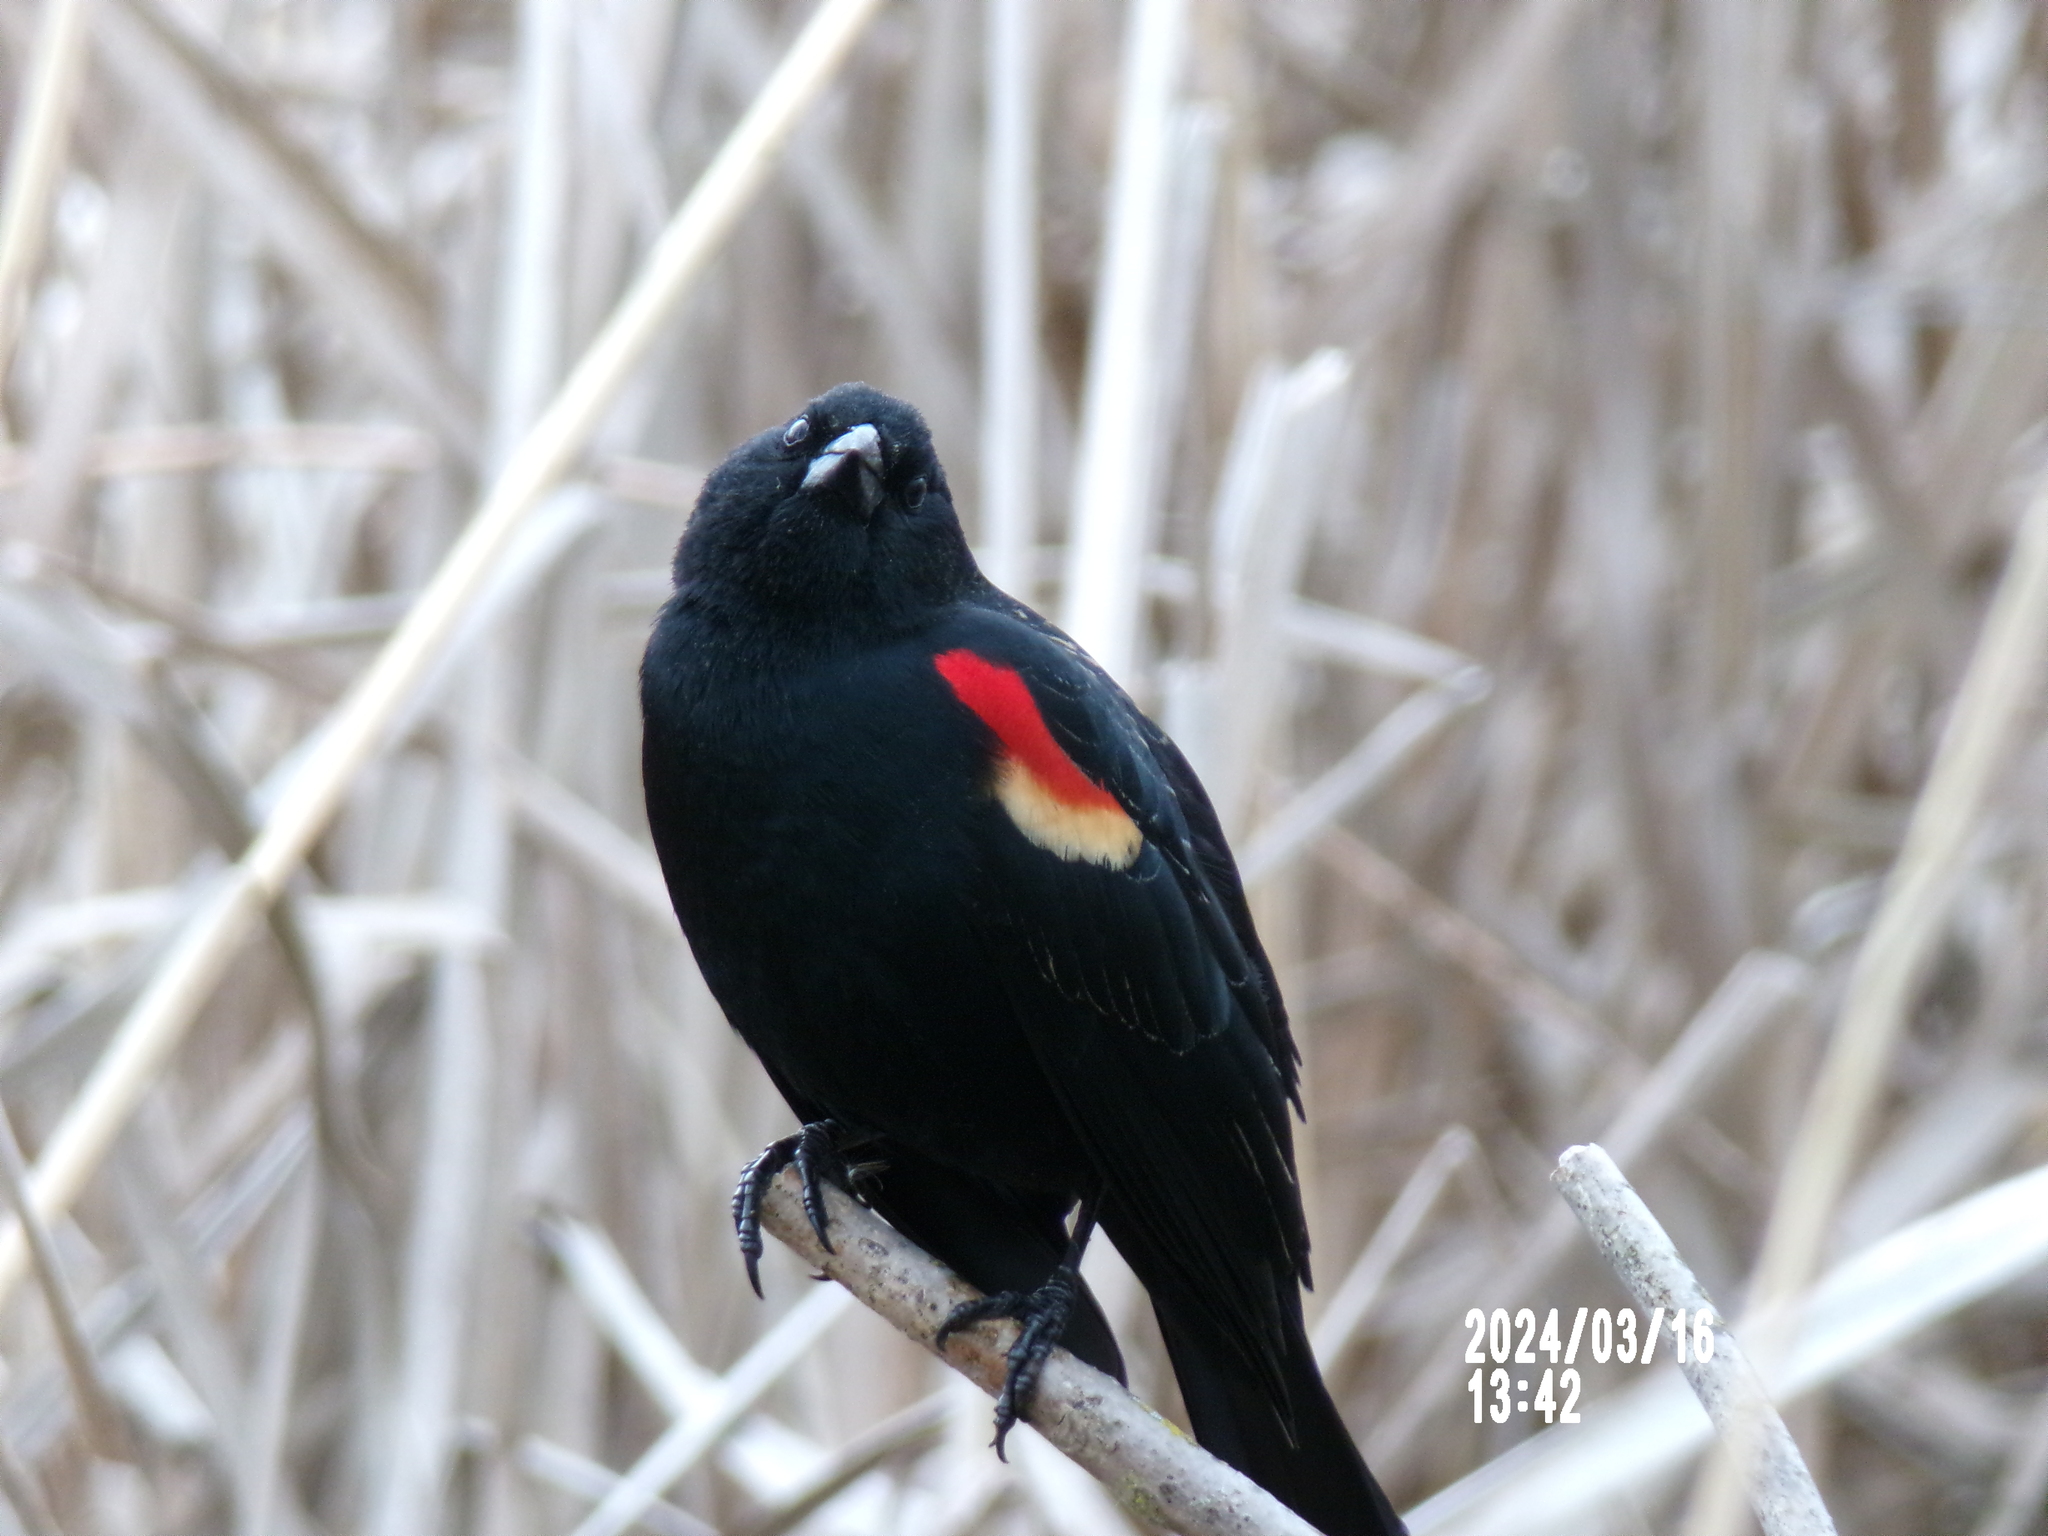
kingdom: Animalia
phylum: Chordata
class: Aves
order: Passeriformes
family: Icteridae
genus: Agelaius
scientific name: Agelaius phoeniceus
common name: Red-winged blackbird
